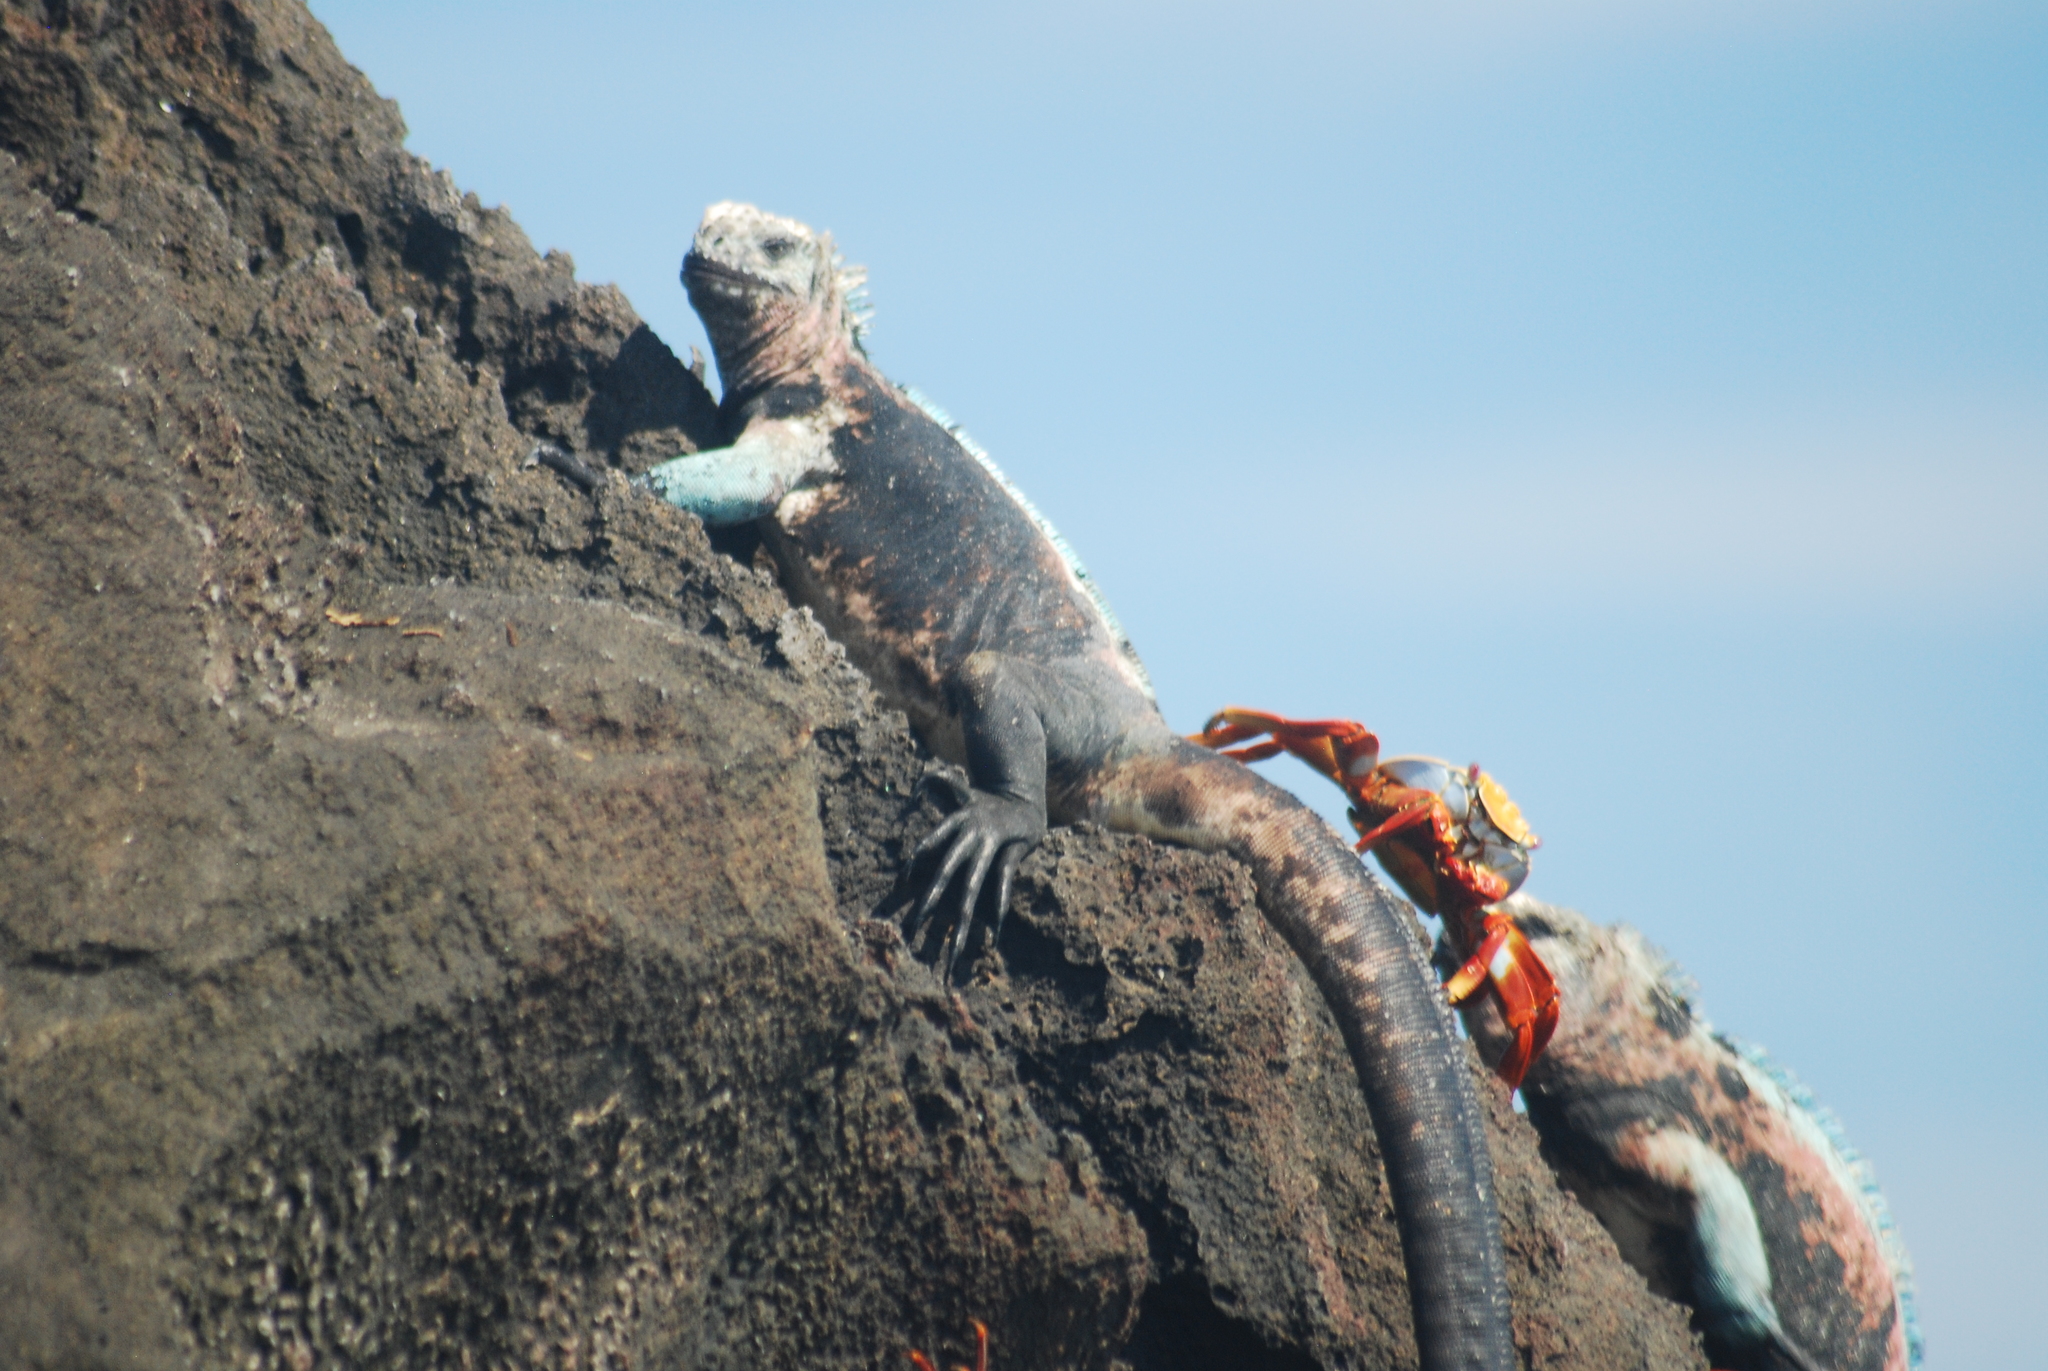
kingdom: Animalia
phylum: Chordata
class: Squamata
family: Iguanidae
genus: Amblyrhynchus
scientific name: Amblyrhynchus cristatus
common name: Marine iguana
